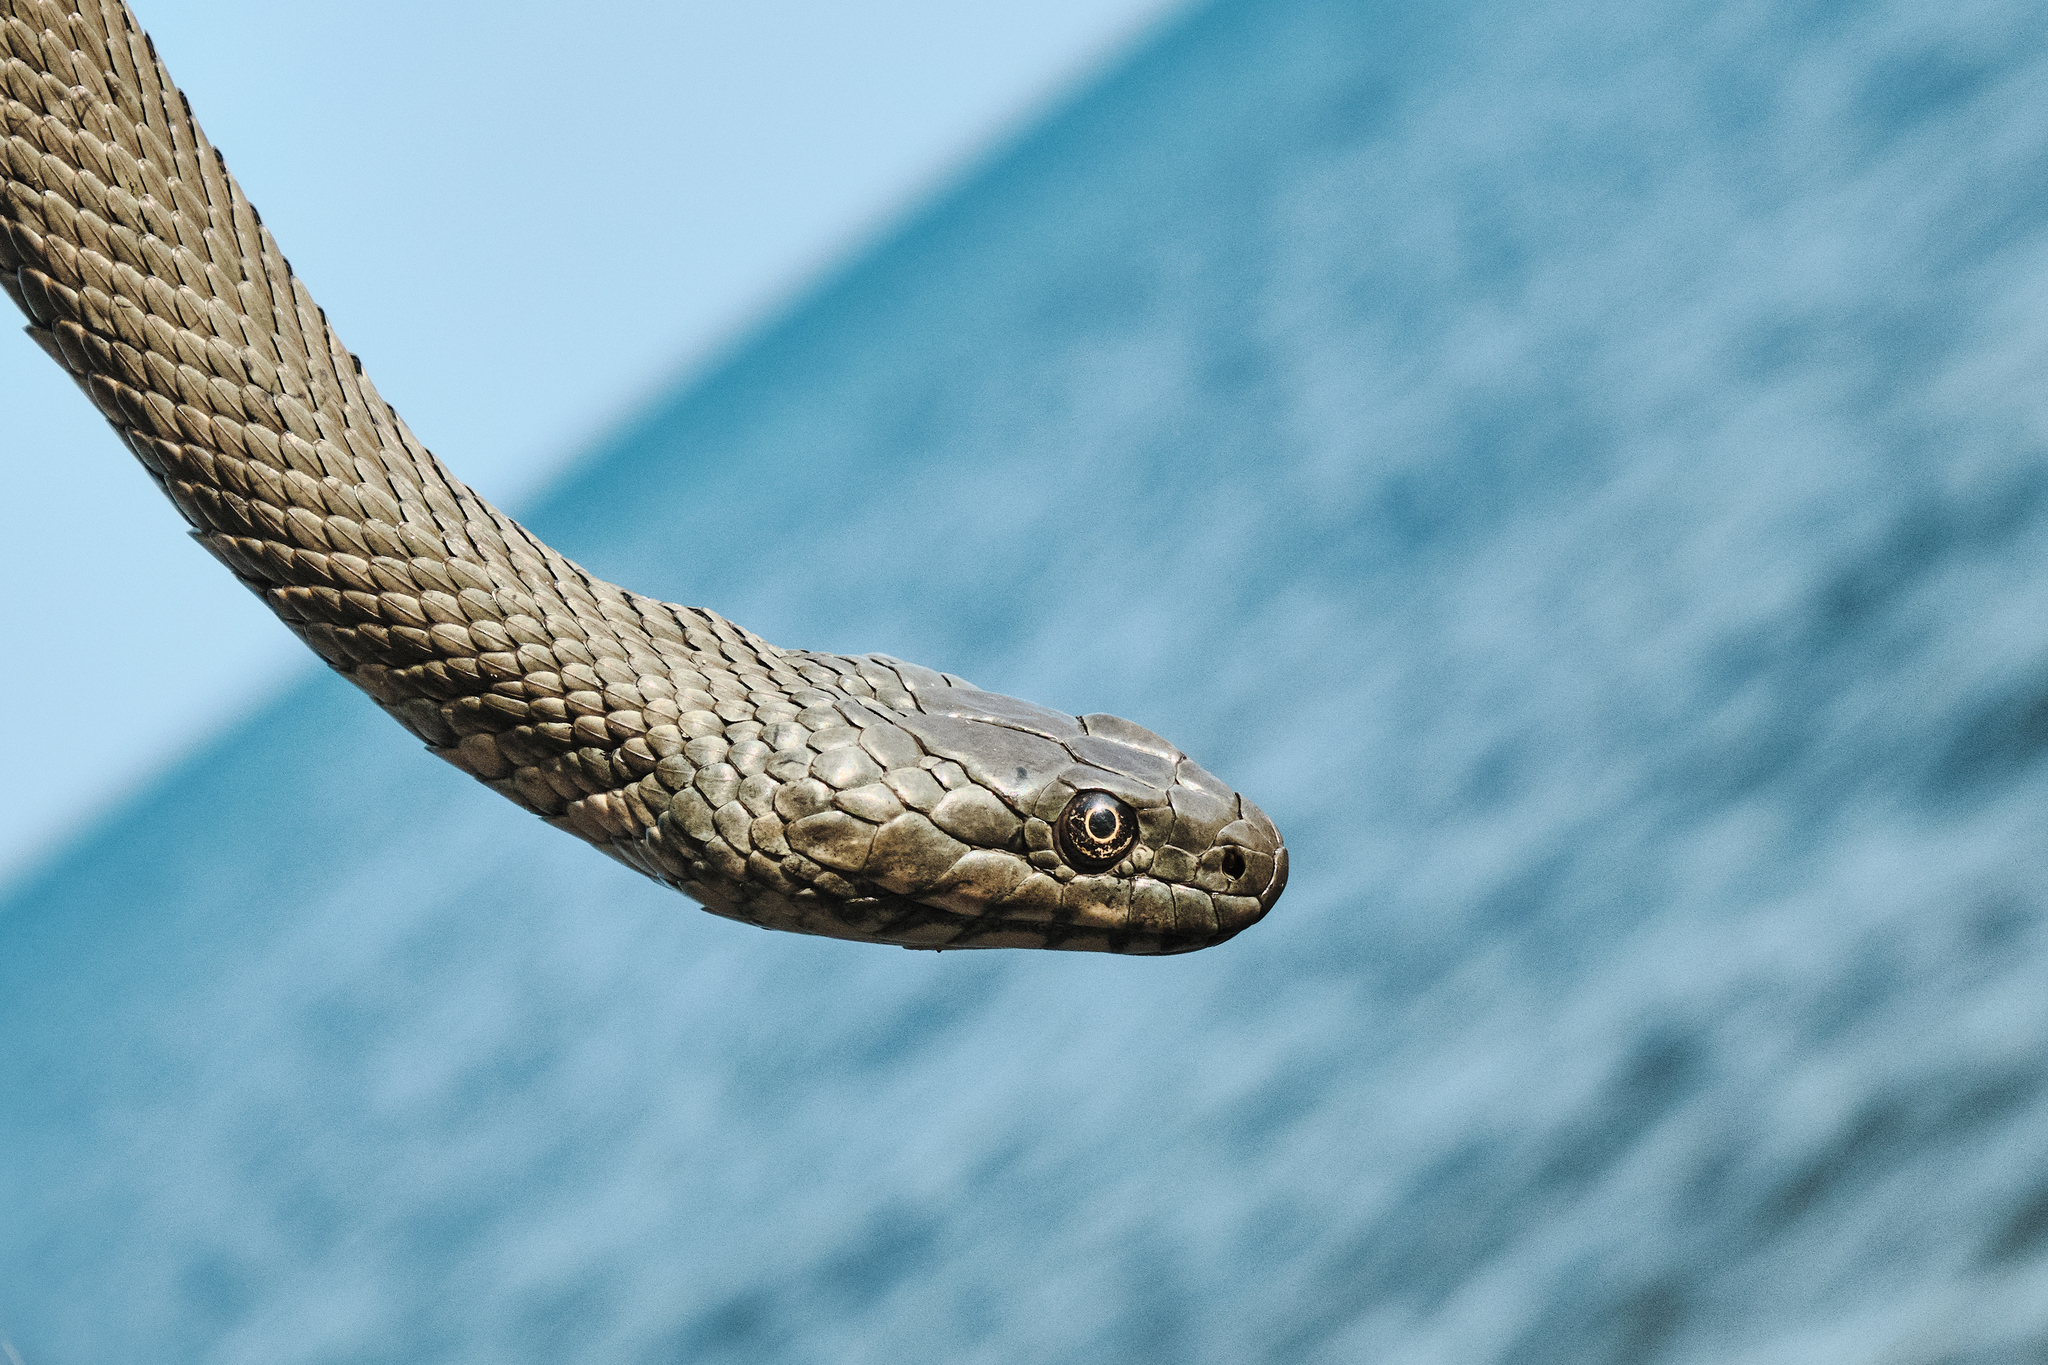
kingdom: Animalia
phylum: Chordata
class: Squamata
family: Colubridae
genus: Natrix
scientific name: Natrix tessellata
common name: Dice snake
